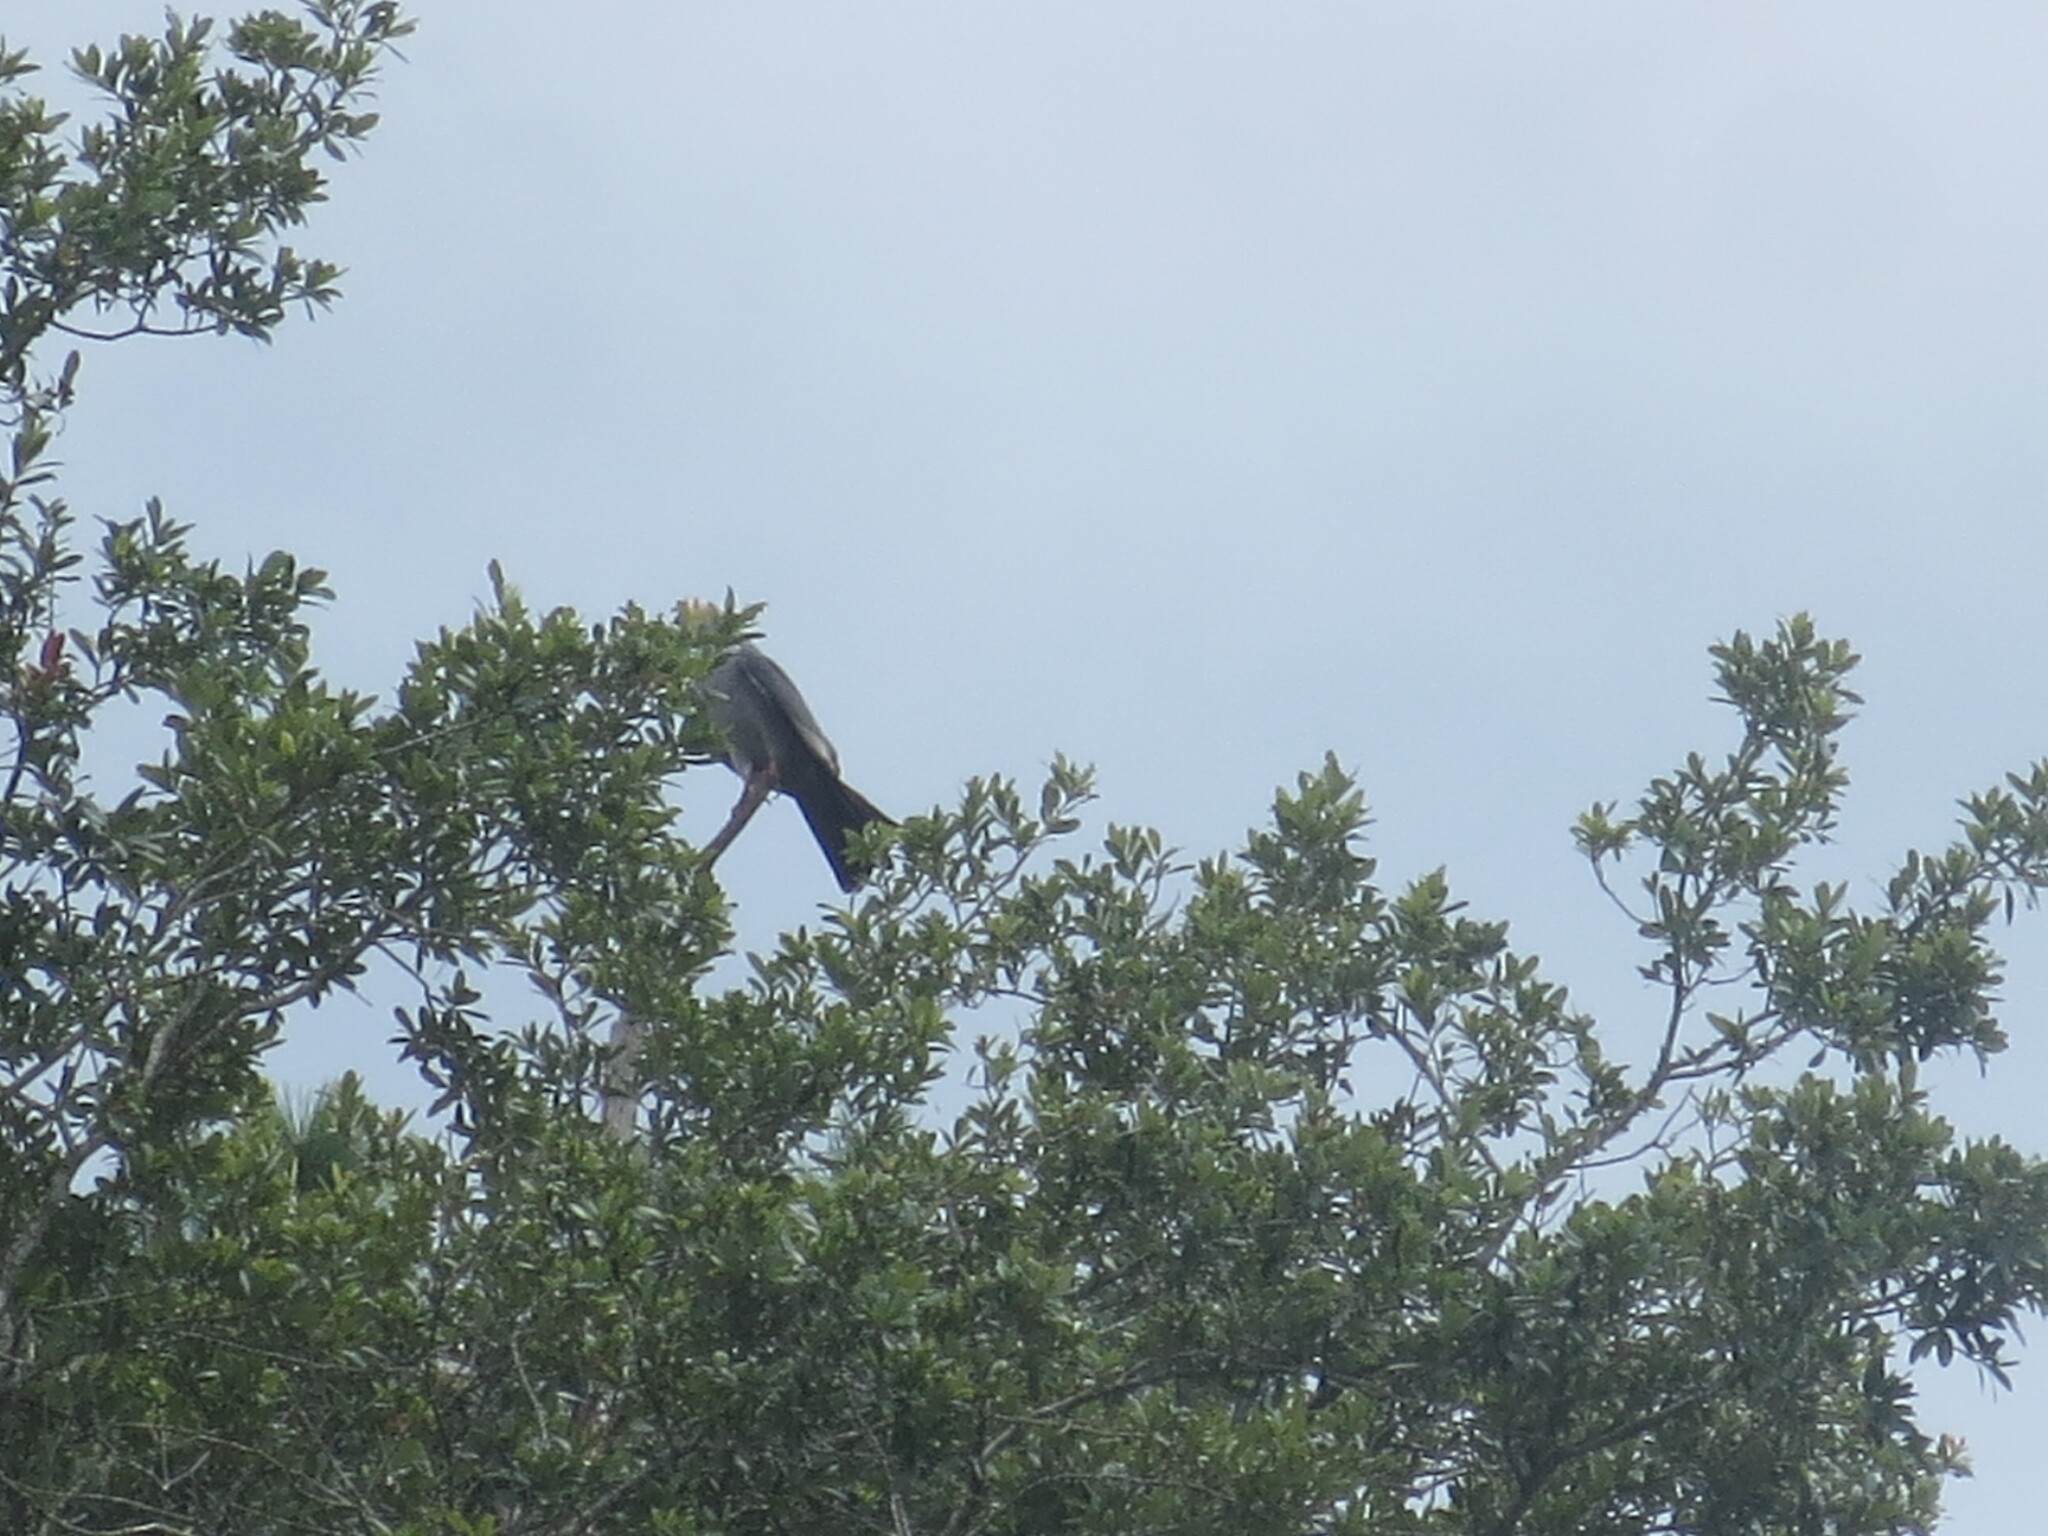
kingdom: Animalia
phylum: Chordata
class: Aves
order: Accipitriformes
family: Accipitridae
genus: Ictinia
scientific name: Ictinia mississippiensis
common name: Mississippi kite
